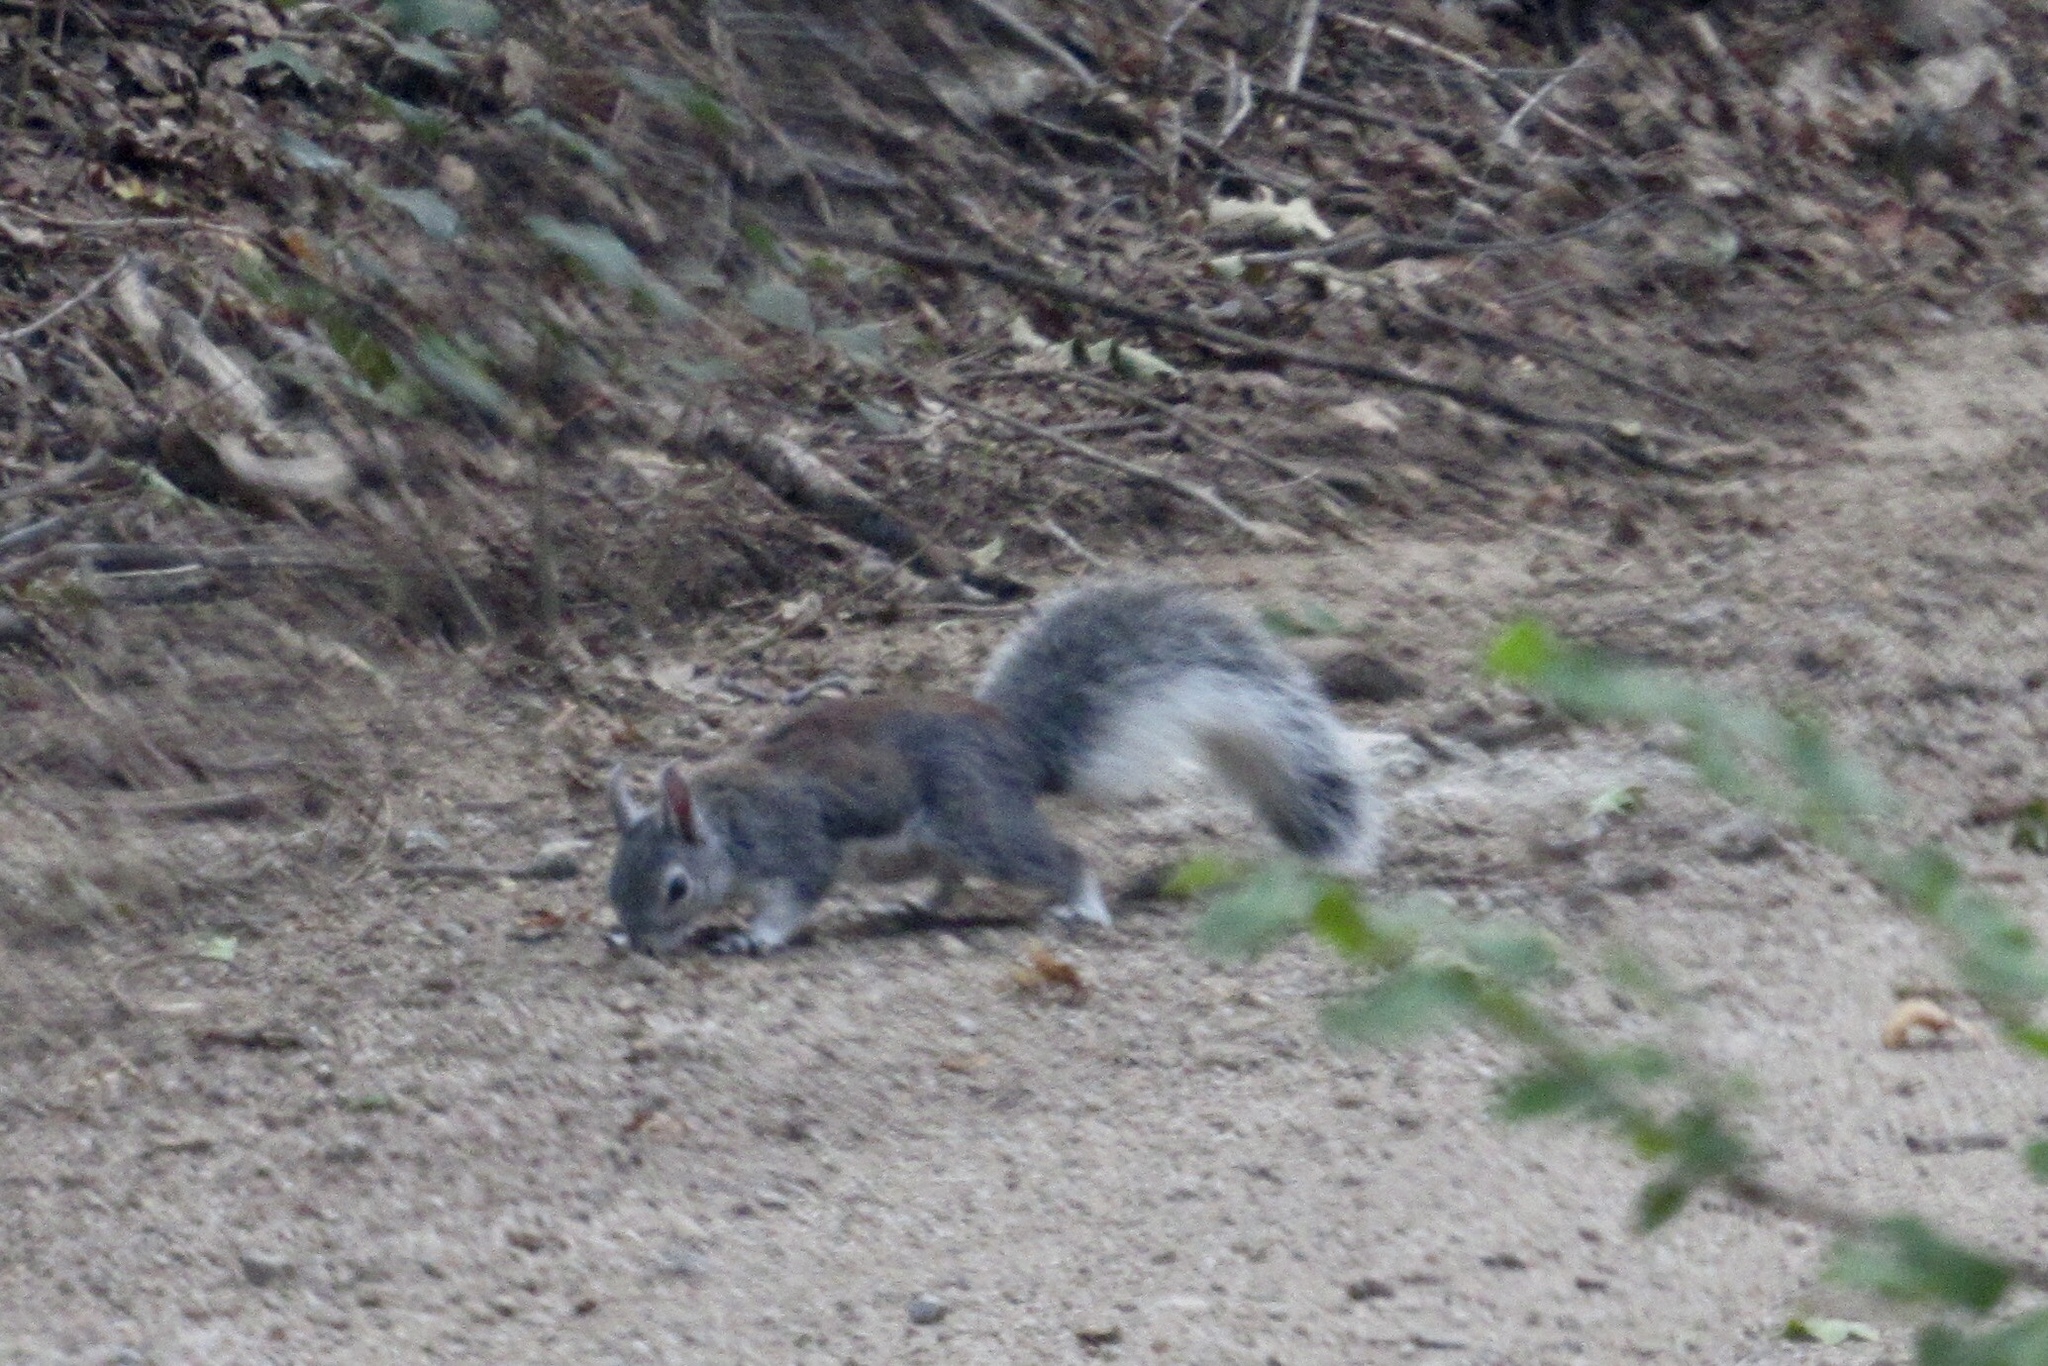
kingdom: Animalia
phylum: Chordata
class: Mammalia
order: Rodentia
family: Sciuridae
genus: Sciurus
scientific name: Sciurus aberti
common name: Abert's squirrel
